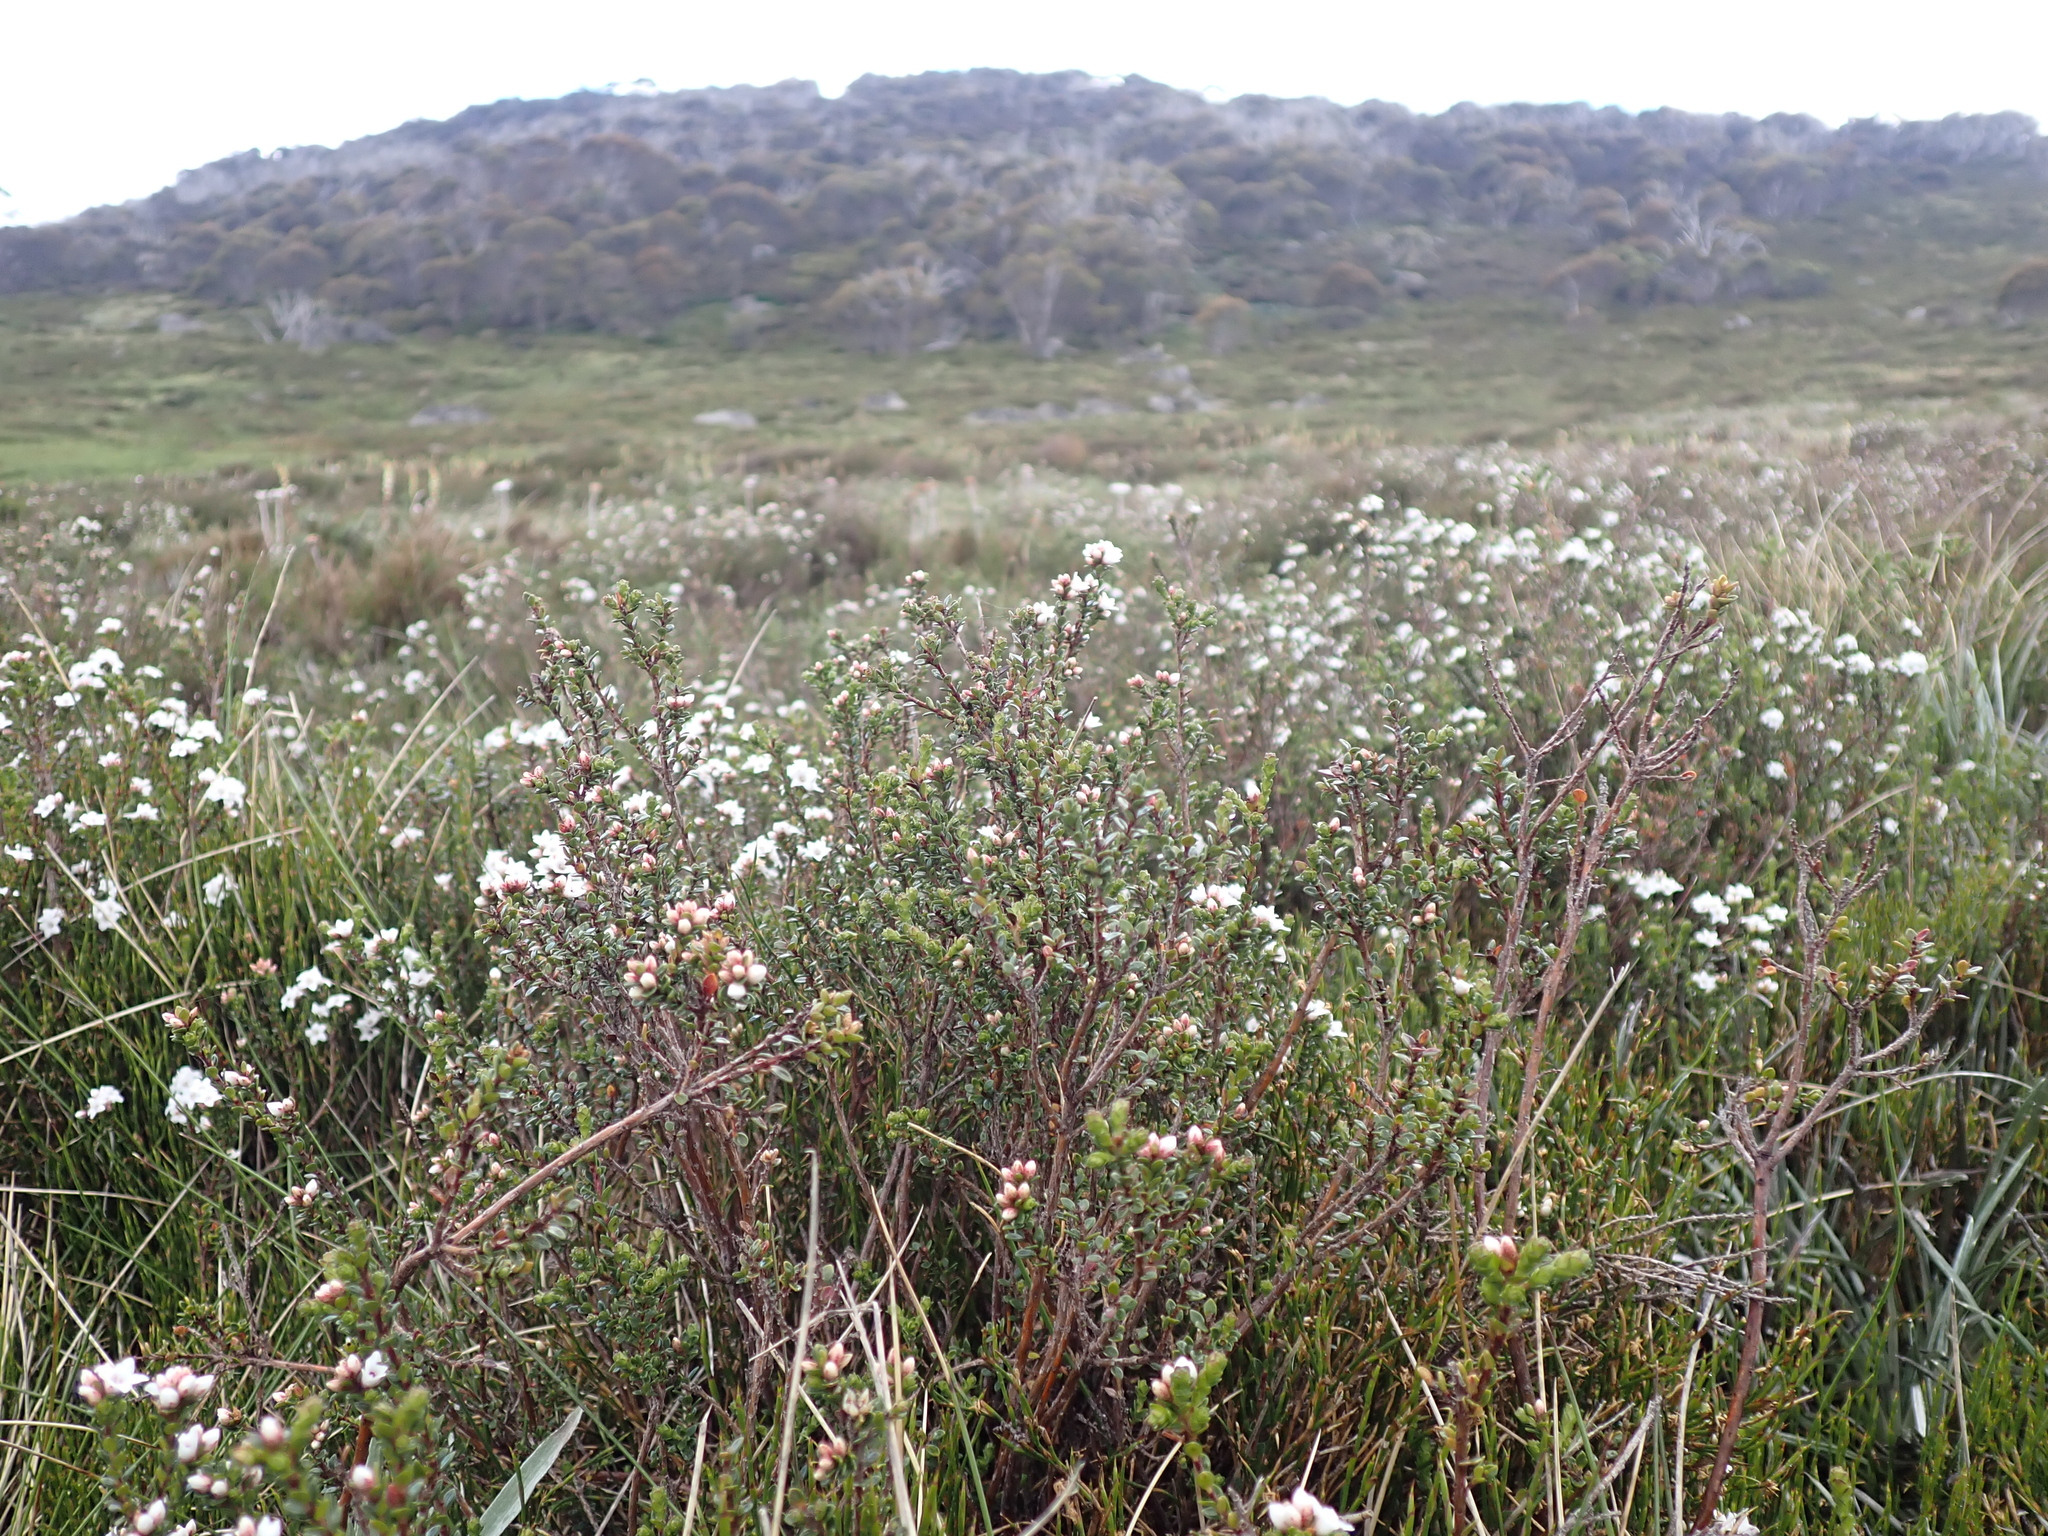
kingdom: Plantae
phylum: Tracheophyta
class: Magnoliopsida
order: Ericales
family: Ericaceae
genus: Epacris
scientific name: Epacris celata
